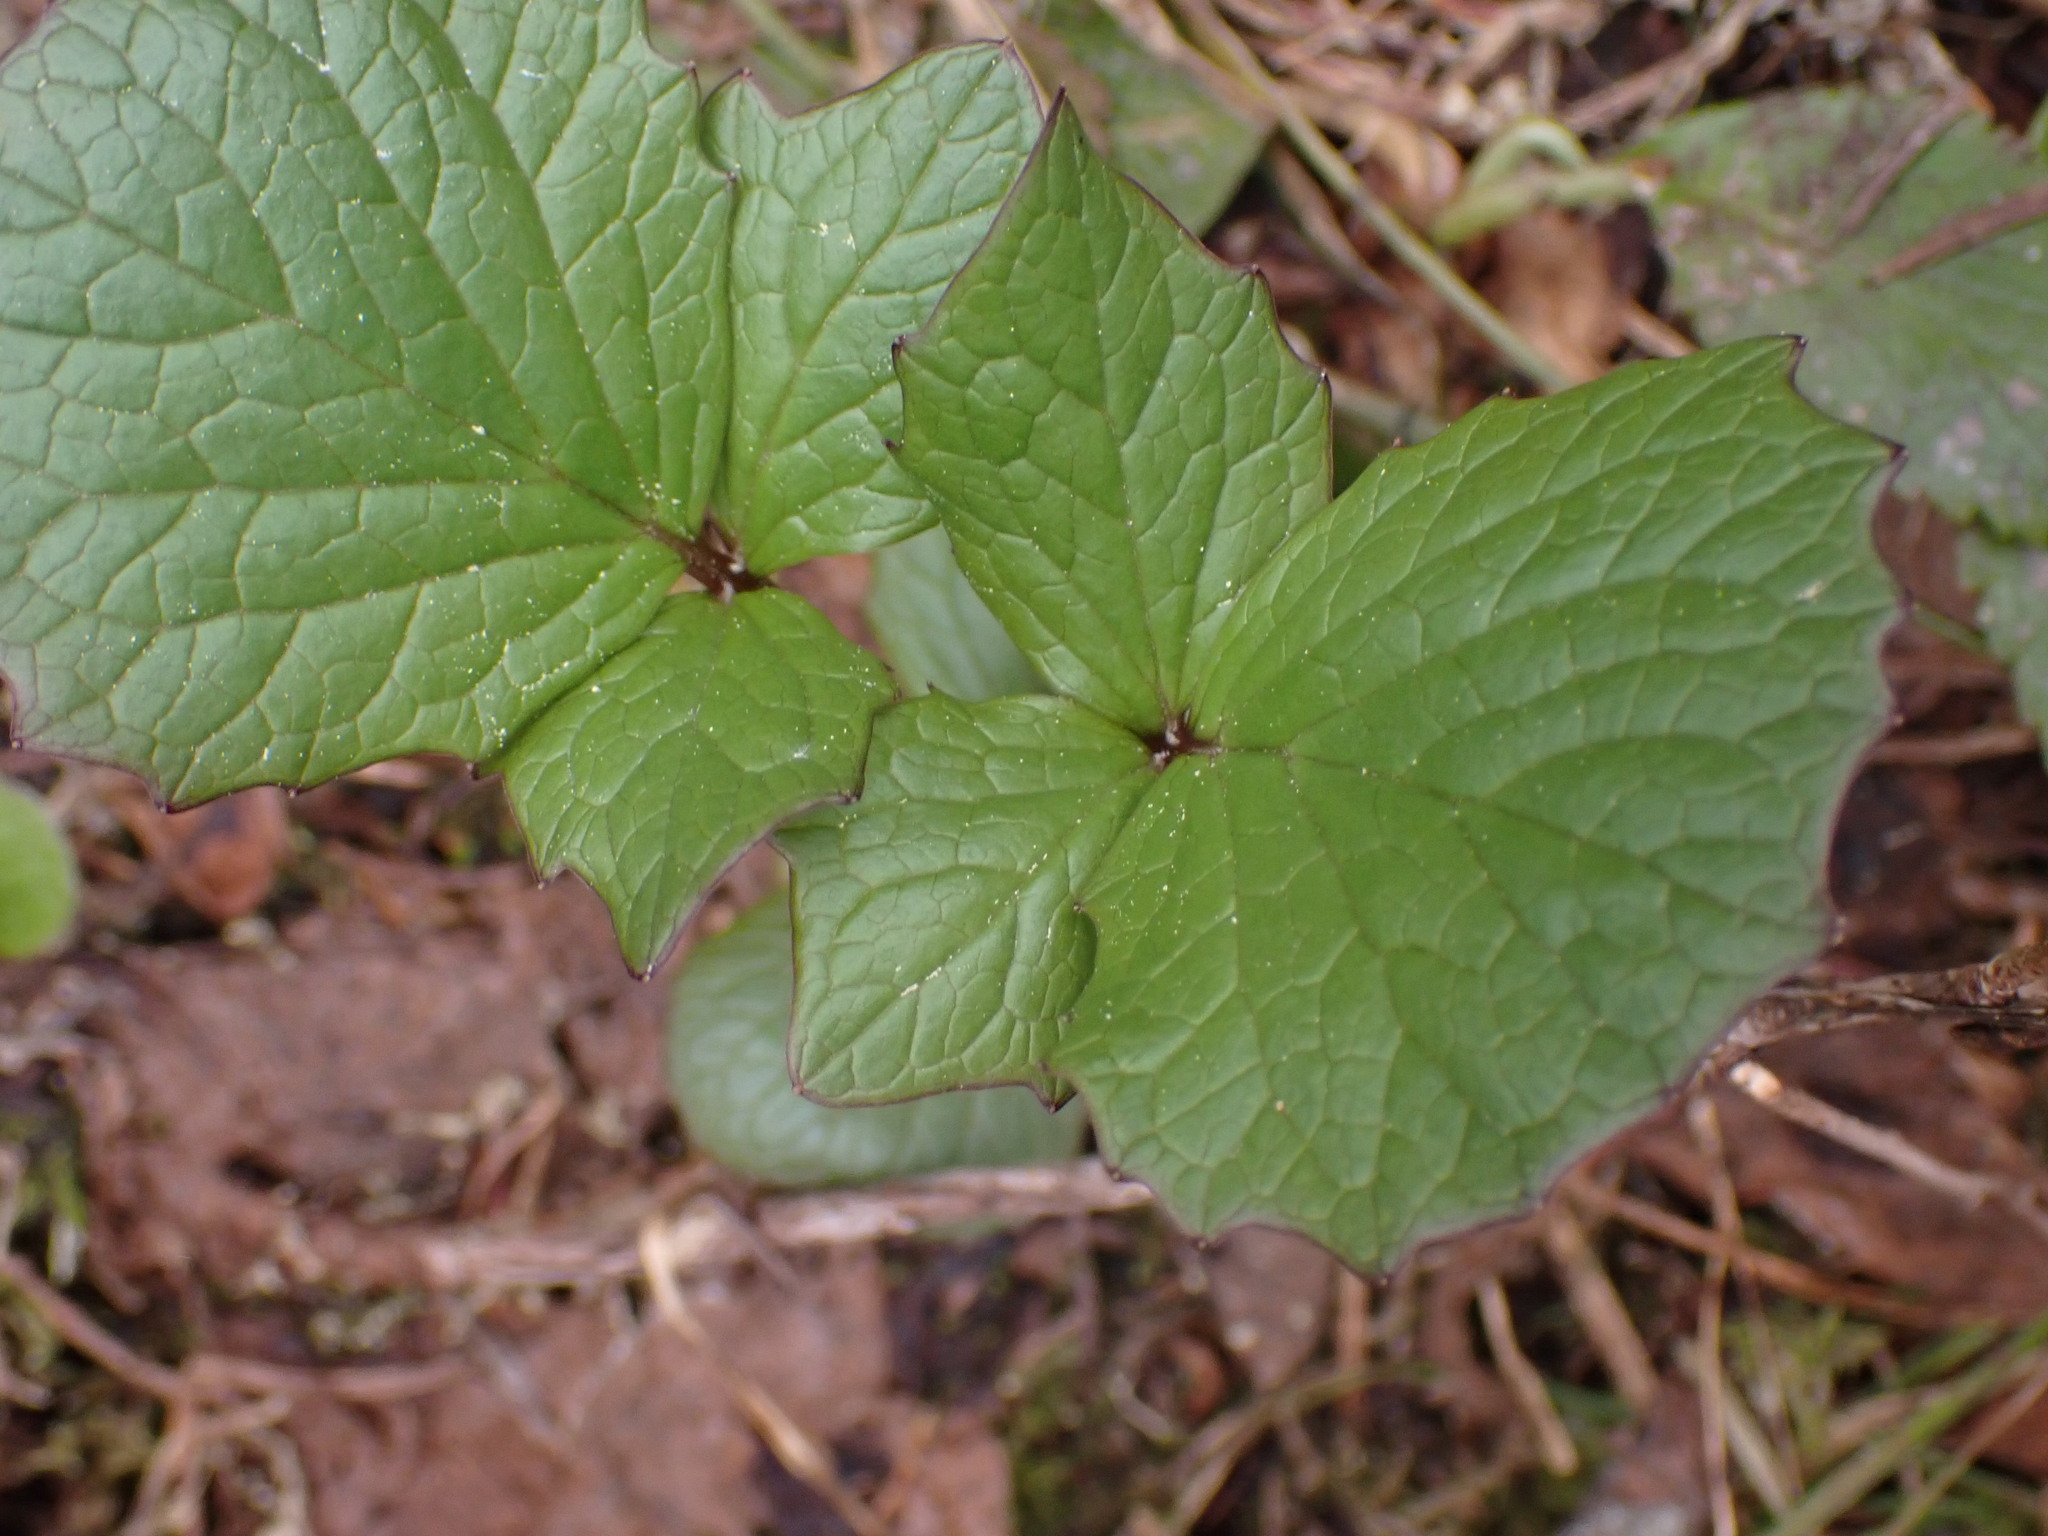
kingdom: Plantae
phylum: Tracheophyta
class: Magnoliopsida
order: Dipsacales
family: Caprifoliaceae
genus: Valeriana
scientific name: Valeriana sitchensis
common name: Pacific valerian
